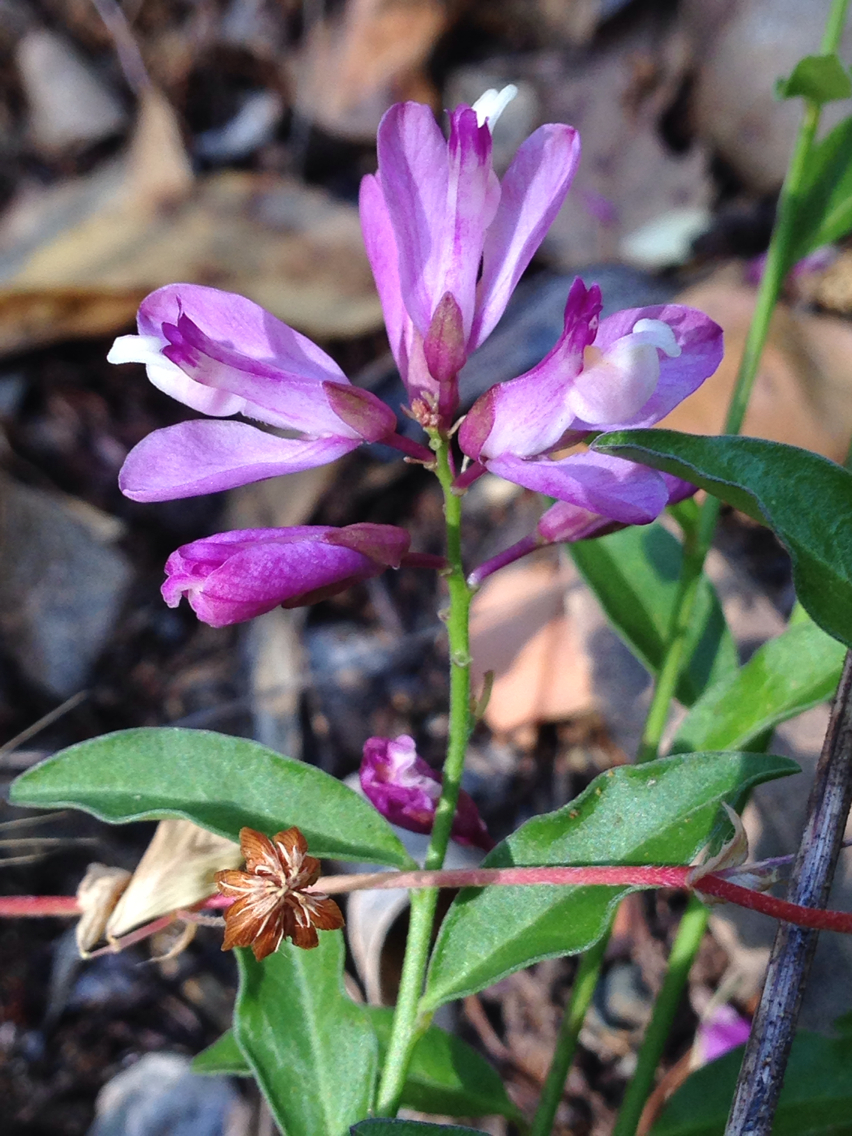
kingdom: Plantae
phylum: Tracheophyta
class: Magnoliopsida
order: Fabales
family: Polygalaceae
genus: Rhinotropis
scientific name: Rhinotropis californica
